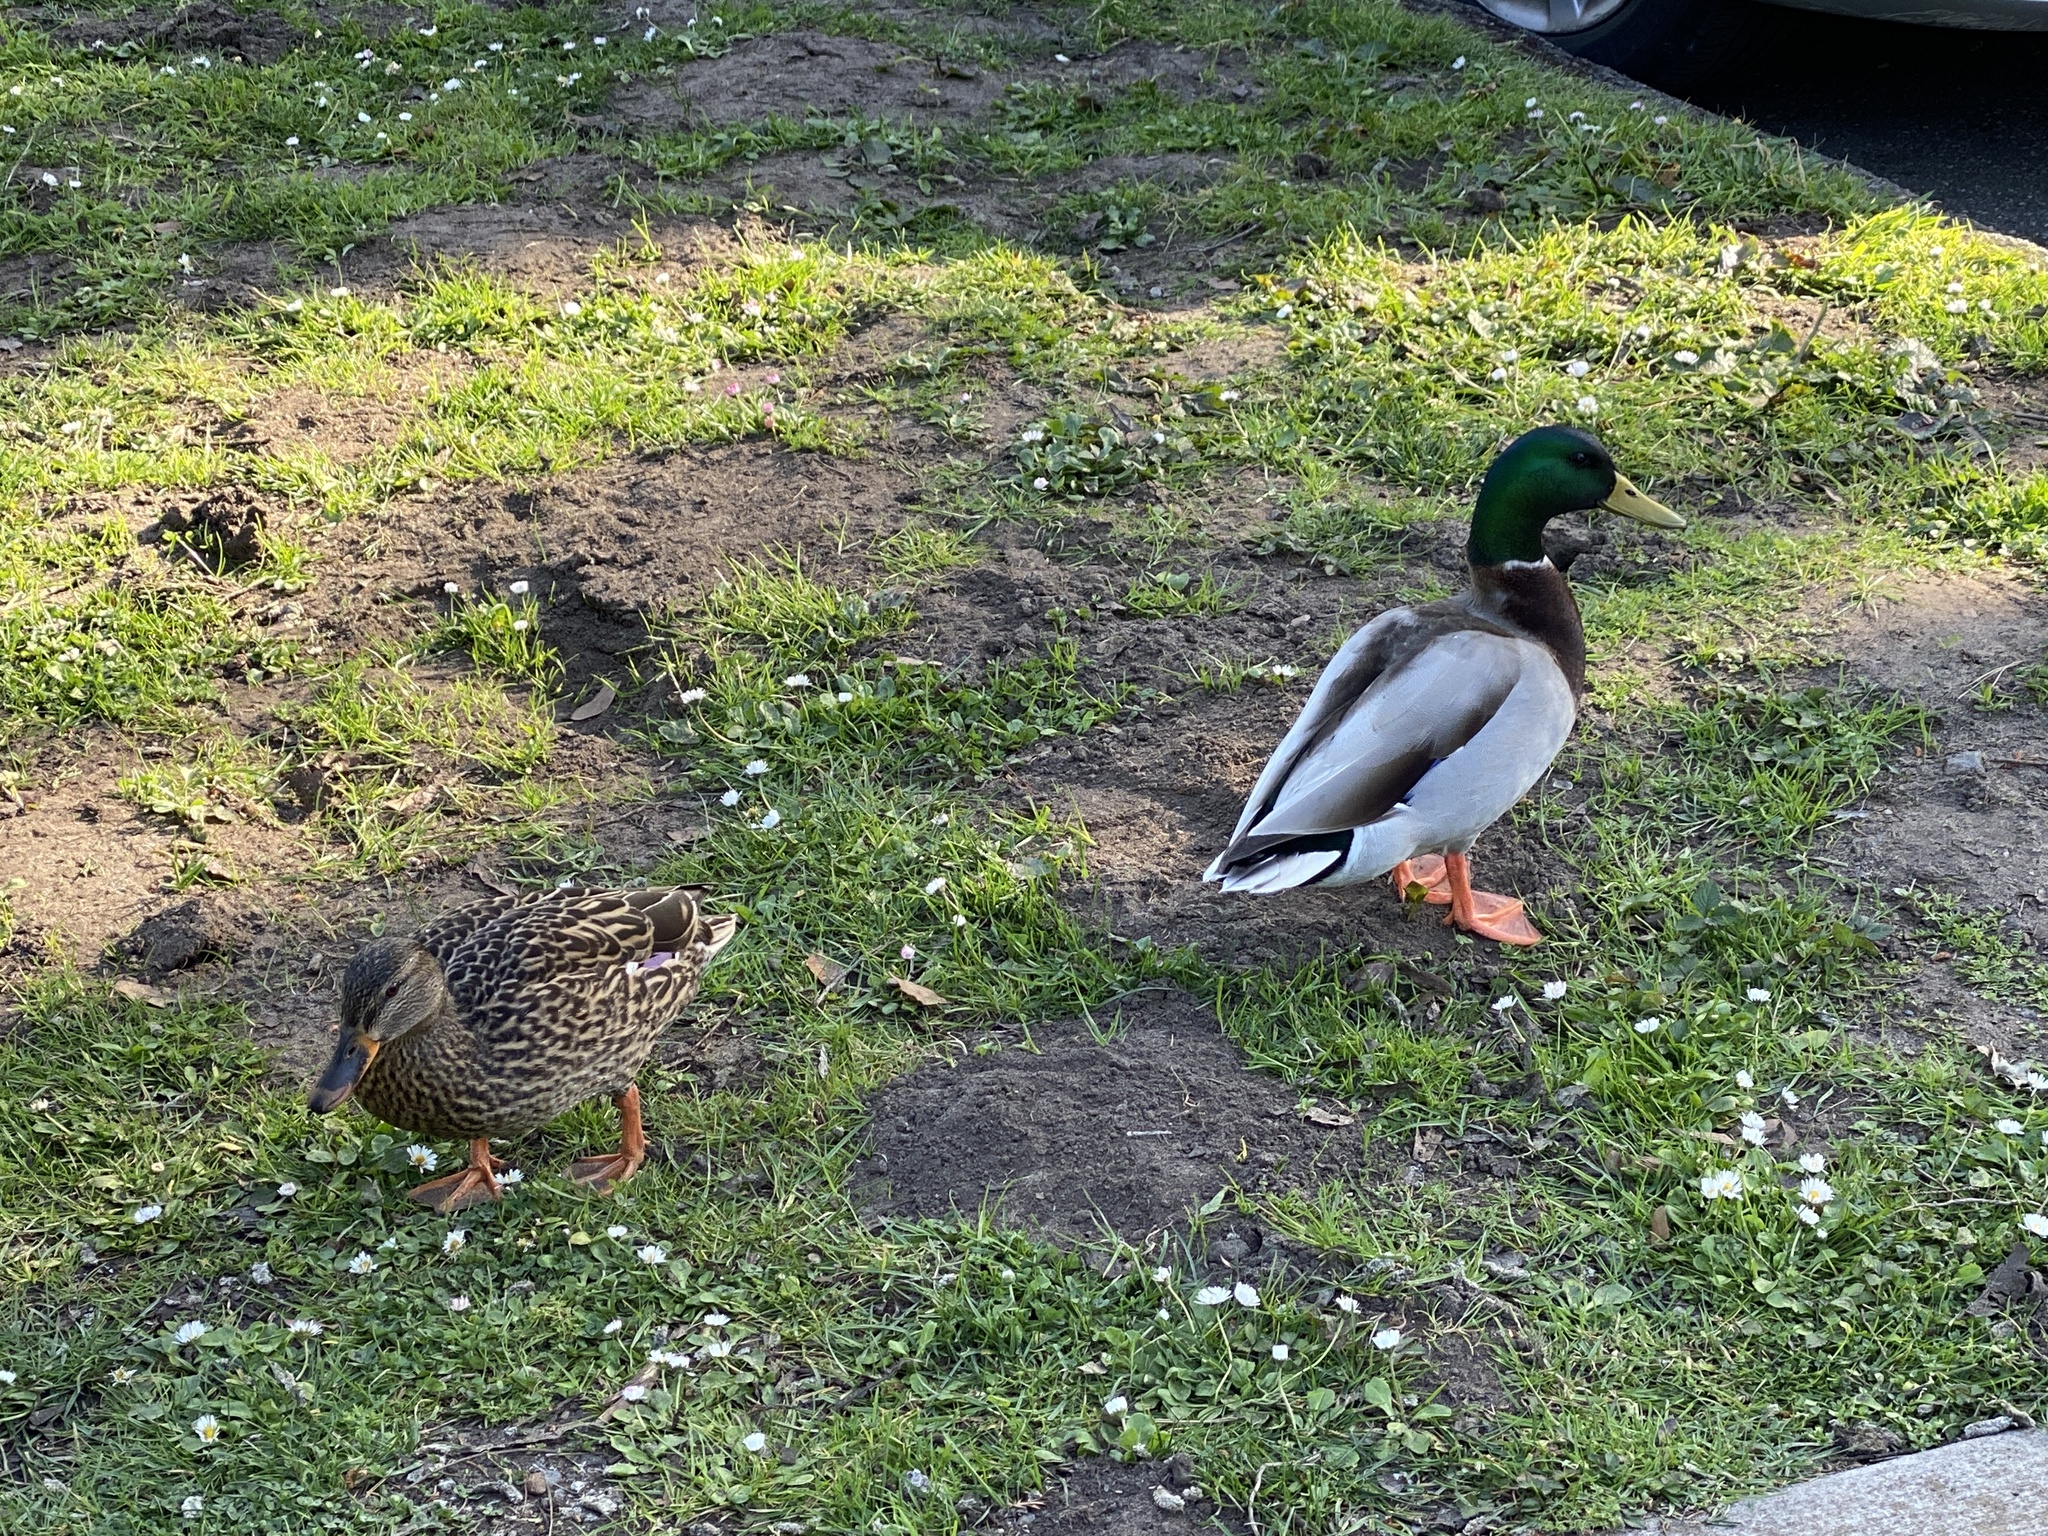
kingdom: Animalia
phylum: Chordata
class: Aves
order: Anseriformes
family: Anatidae
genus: Anas
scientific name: Anas platyrhynchos
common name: Mallard
